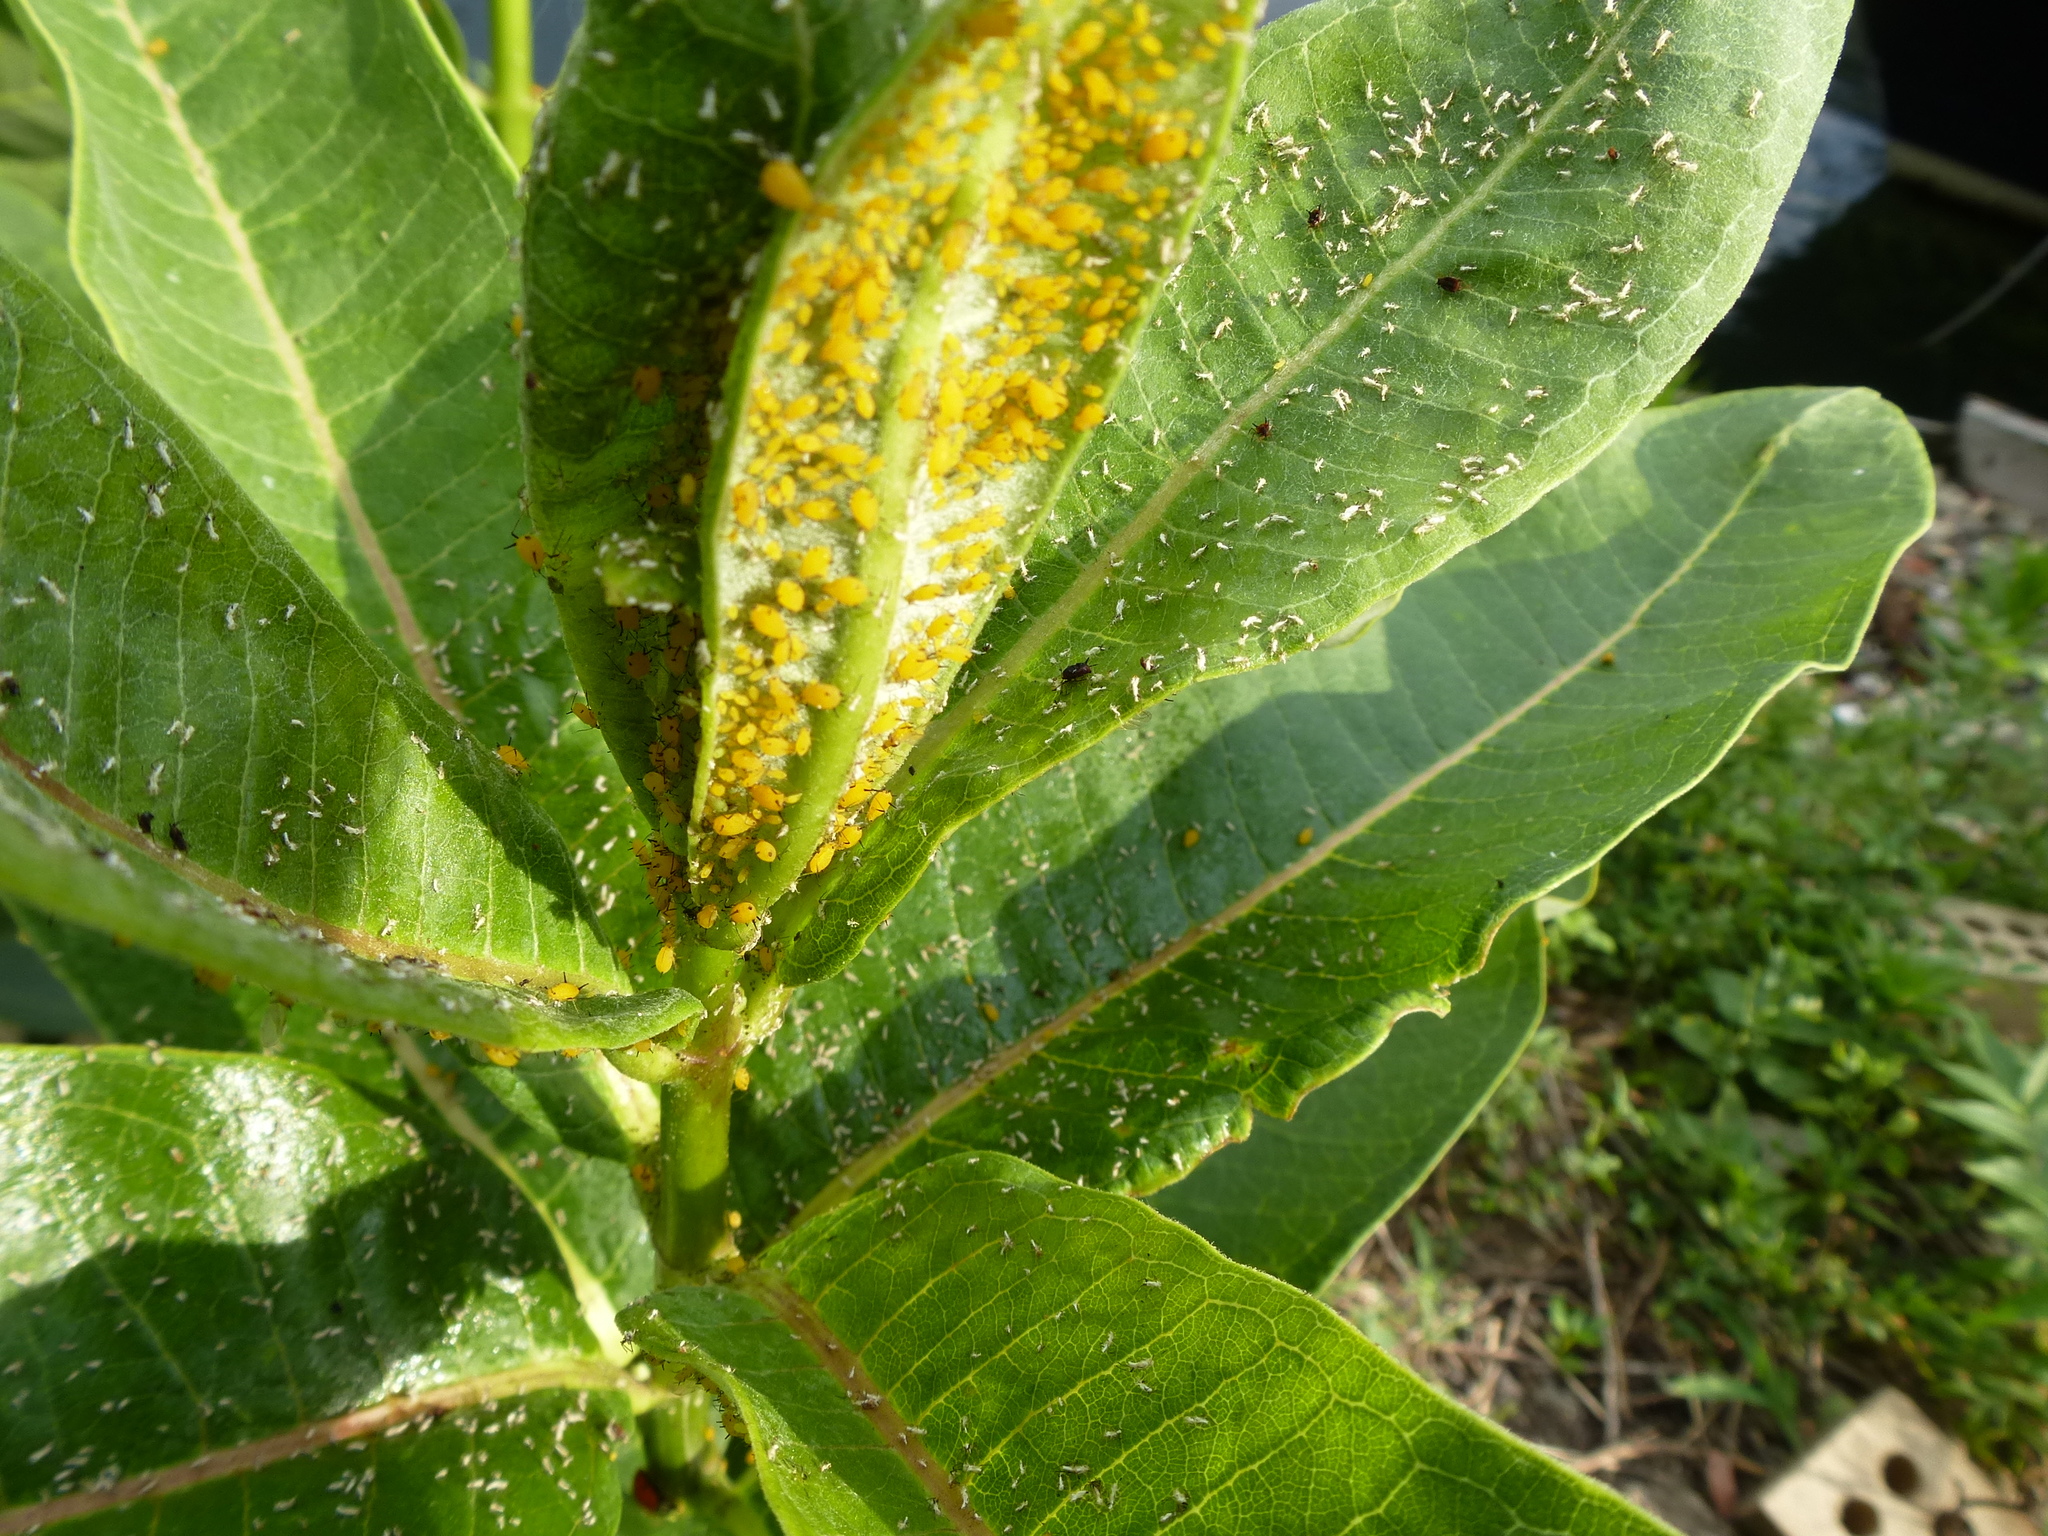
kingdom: Animalia
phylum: Arthropoda
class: Insecta
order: Hemiptera
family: Aphididae
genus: Aphis
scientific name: Aphis nerii
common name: Oleander aphid
